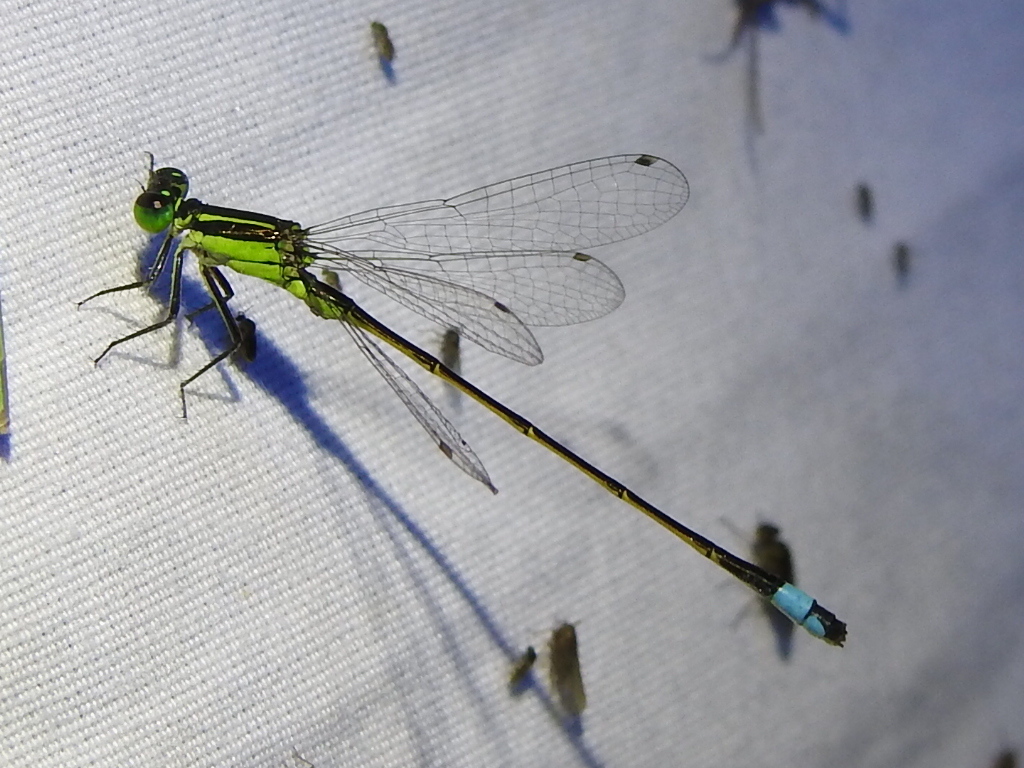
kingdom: Animalia
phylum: Arthropoda
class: Insecta
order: Odonata
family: Coenagrionidae
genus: Ischnura
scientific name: Ischnura ramburii
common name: Rambur's forktail
